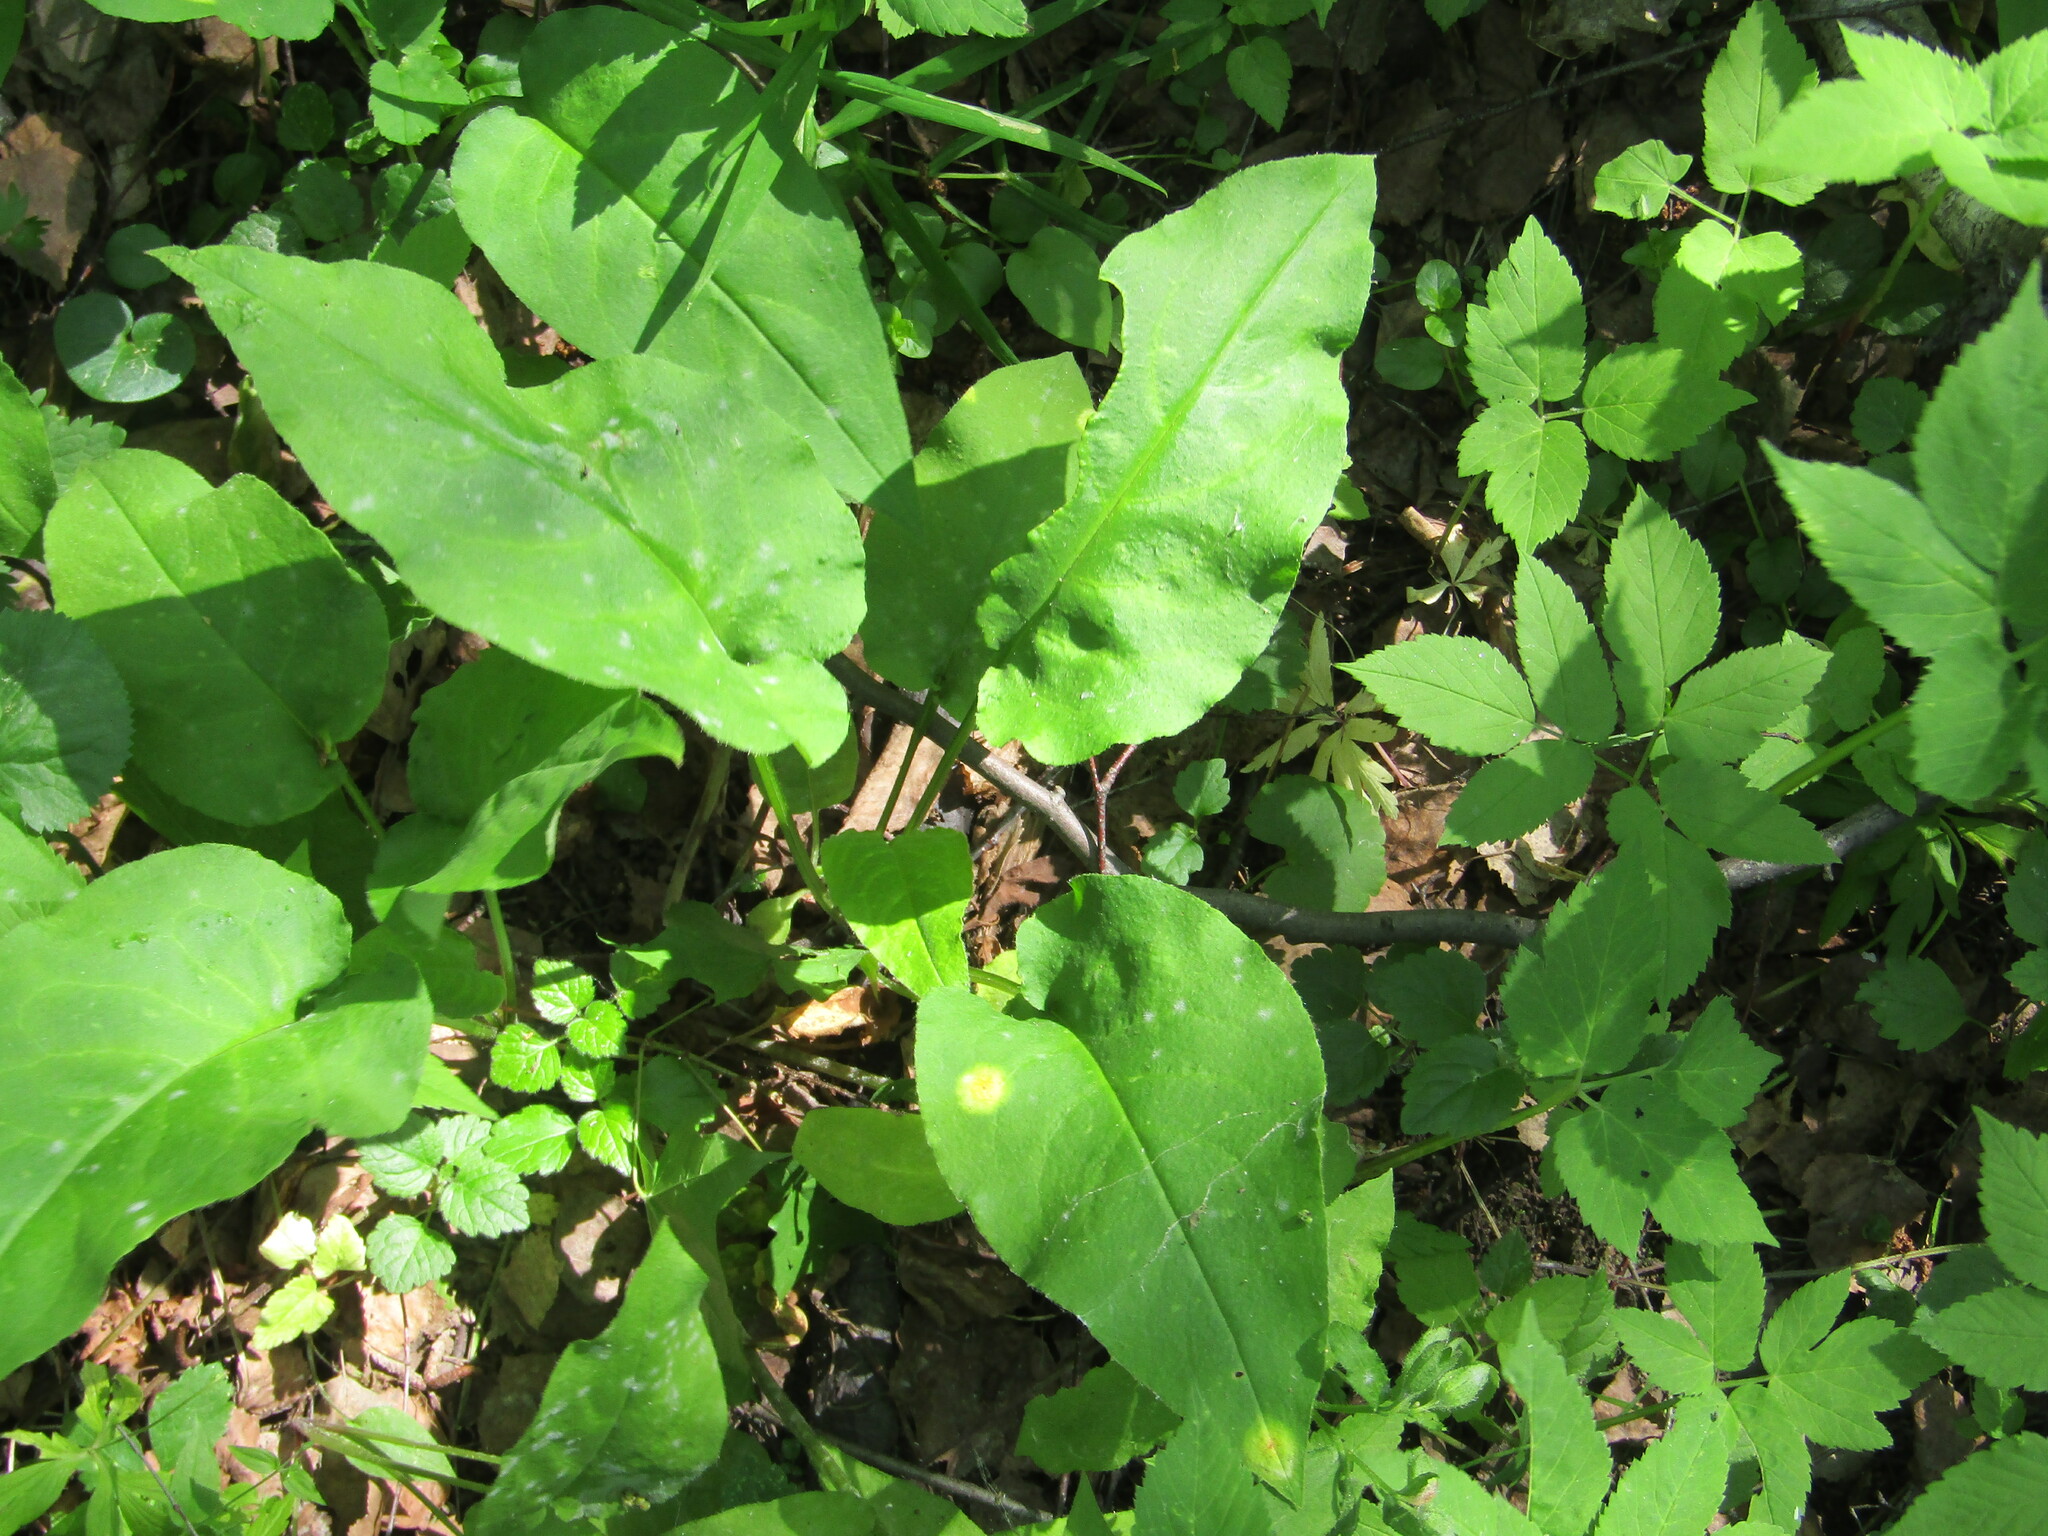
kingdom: Plantae
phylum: Tracheophyta
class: Magnoliopsida
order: Boraginales
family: Boraginaceae
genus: Pulmonaria
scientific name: Pulmonaria obscura
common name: Suffolk lungwort
